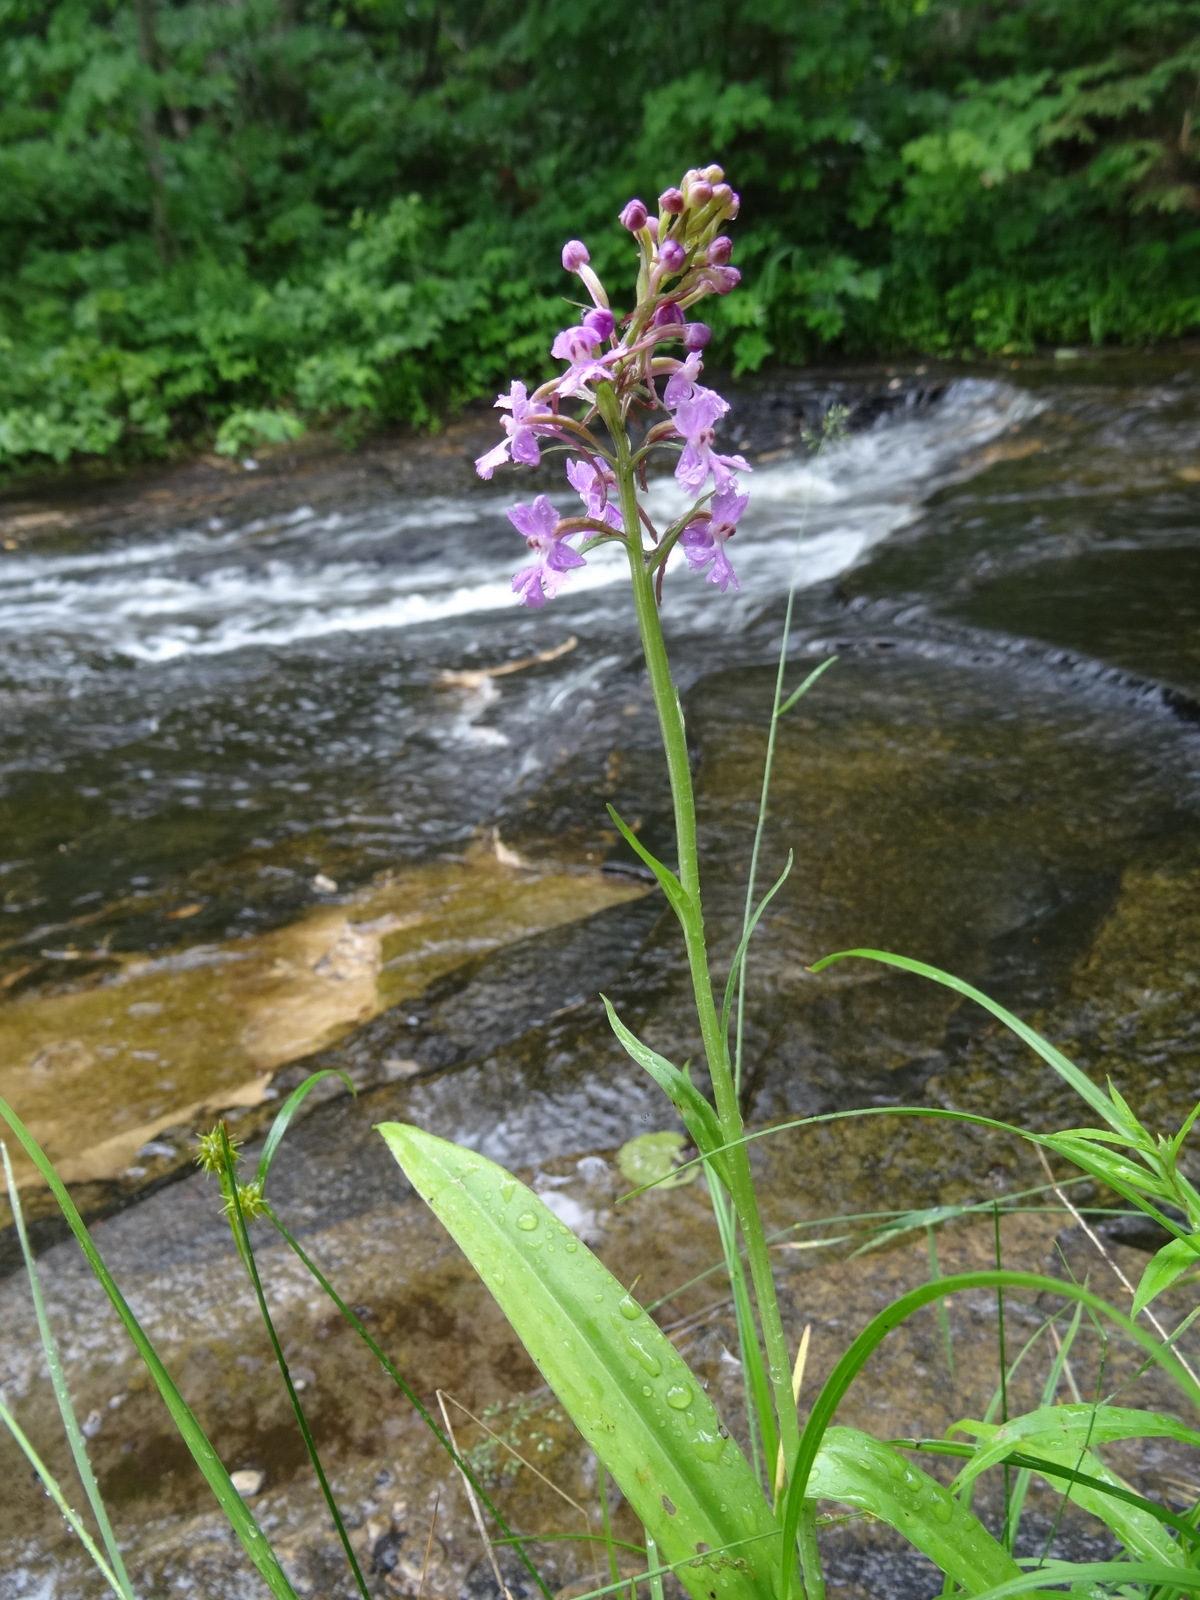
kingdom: Plantae
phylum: Tracheophyta
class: Liliopsida
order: Asparagales
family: Orchidaceae
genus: Platanthera
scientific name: Platanthera psycodes
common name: Lesser purple fringed orchid
